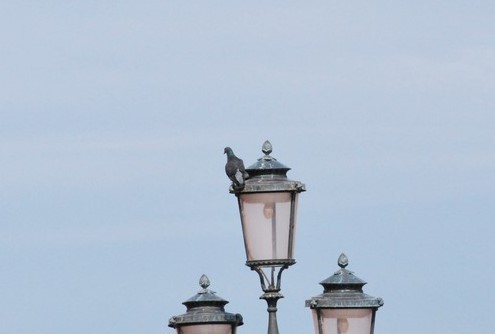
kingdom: Animalia
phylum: Chordata
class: Aves
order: Columbiformes
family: Columbidae
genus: Columba
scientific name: Columba livia
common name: Rock pigeon
